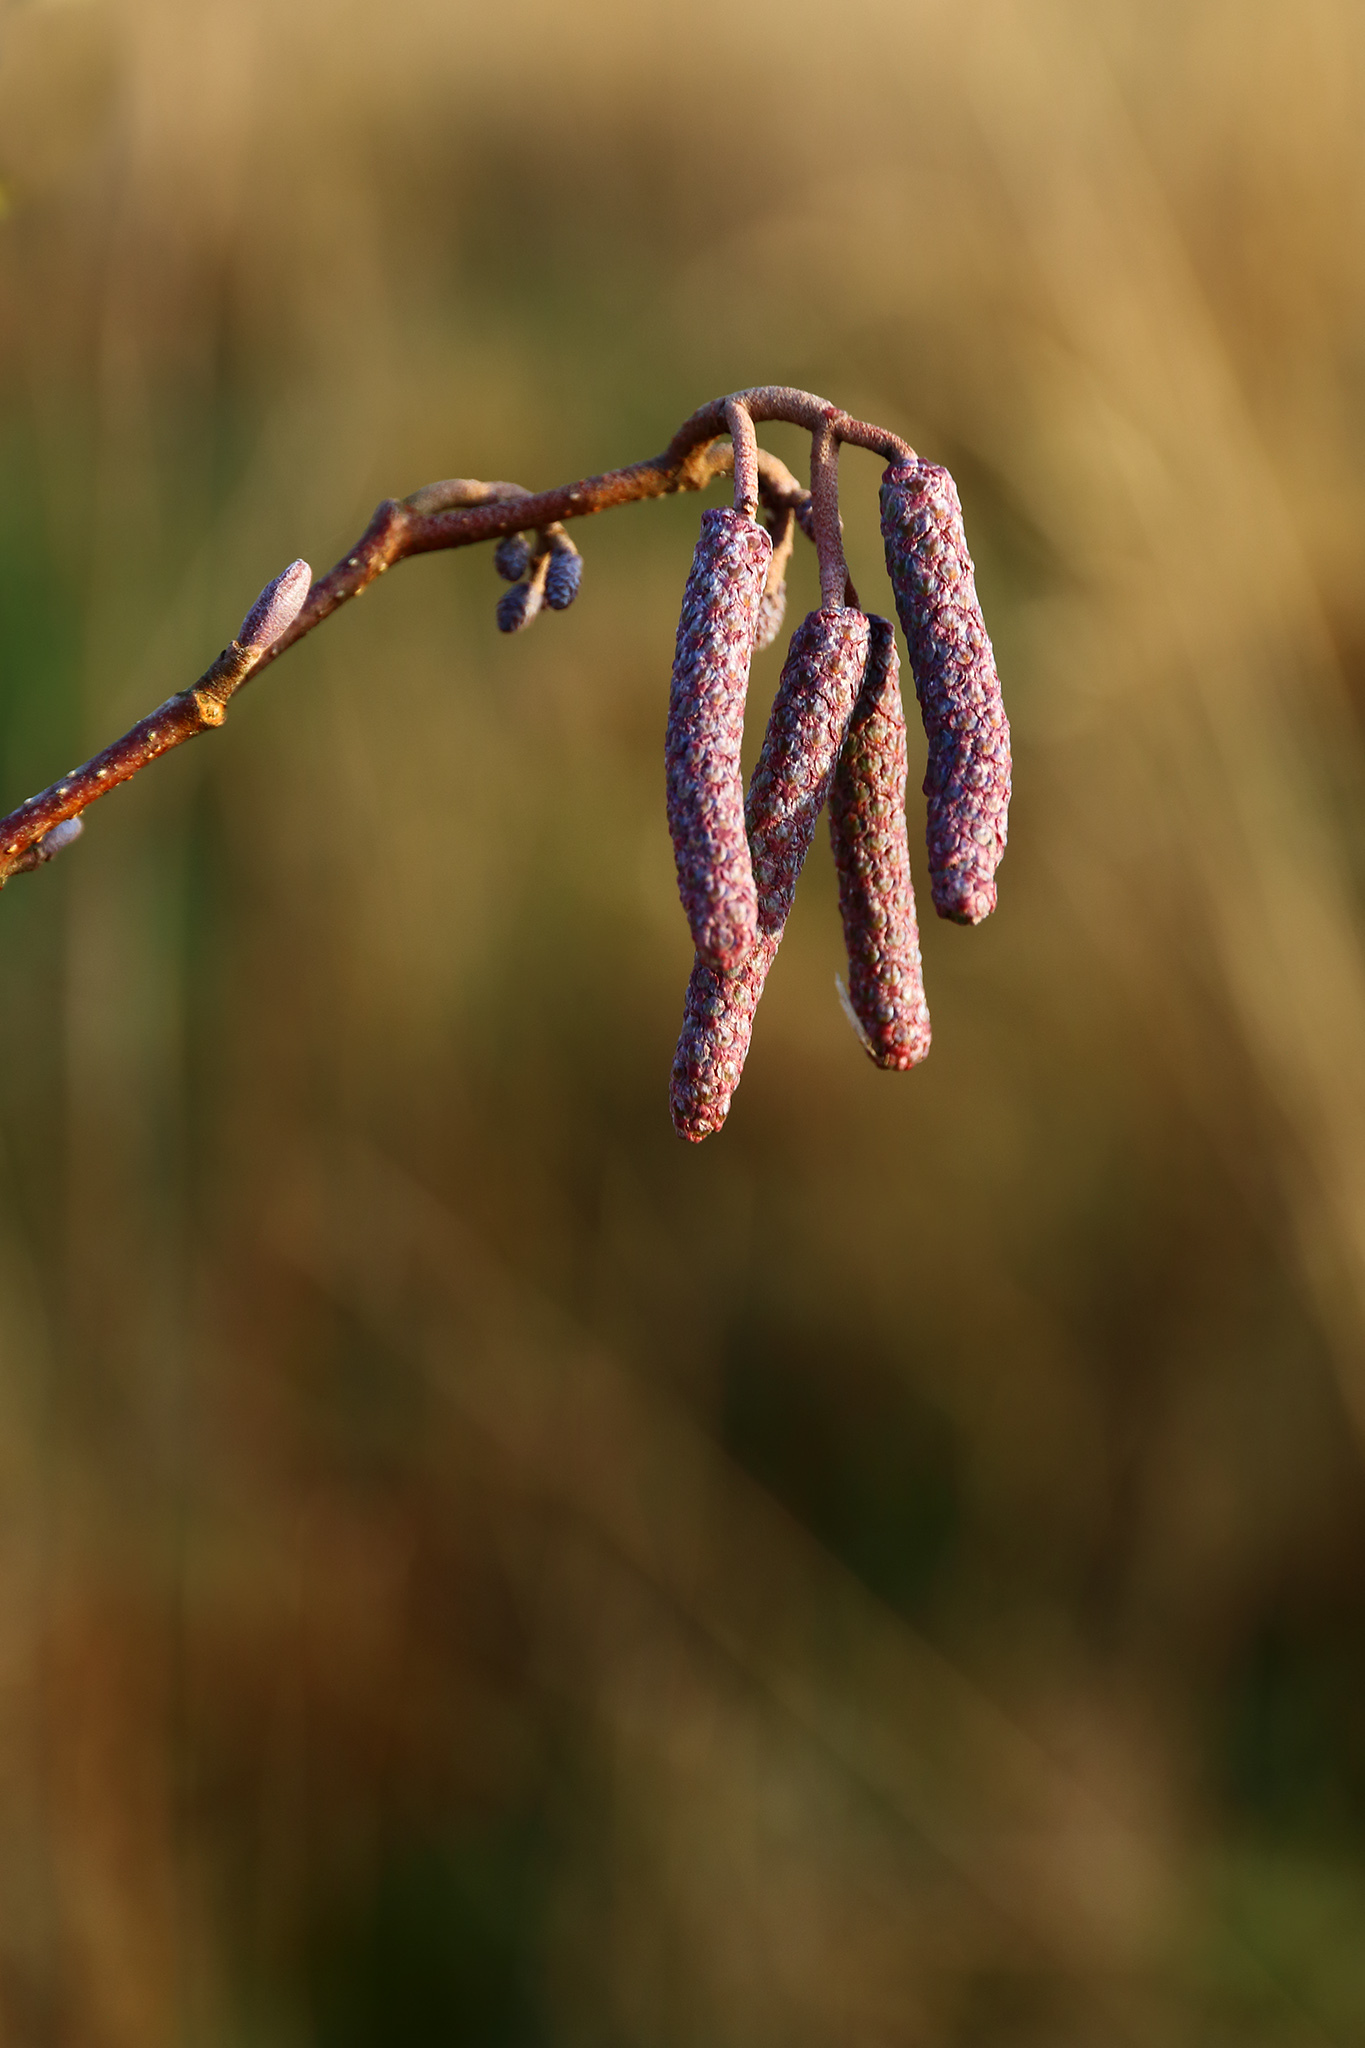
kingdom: Plantae
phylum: Tracheophyta
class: Magnoliopsida
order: Fagales
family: Betulaceae
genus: Alnus
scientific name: Alnus glutinosa
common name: Black alder
